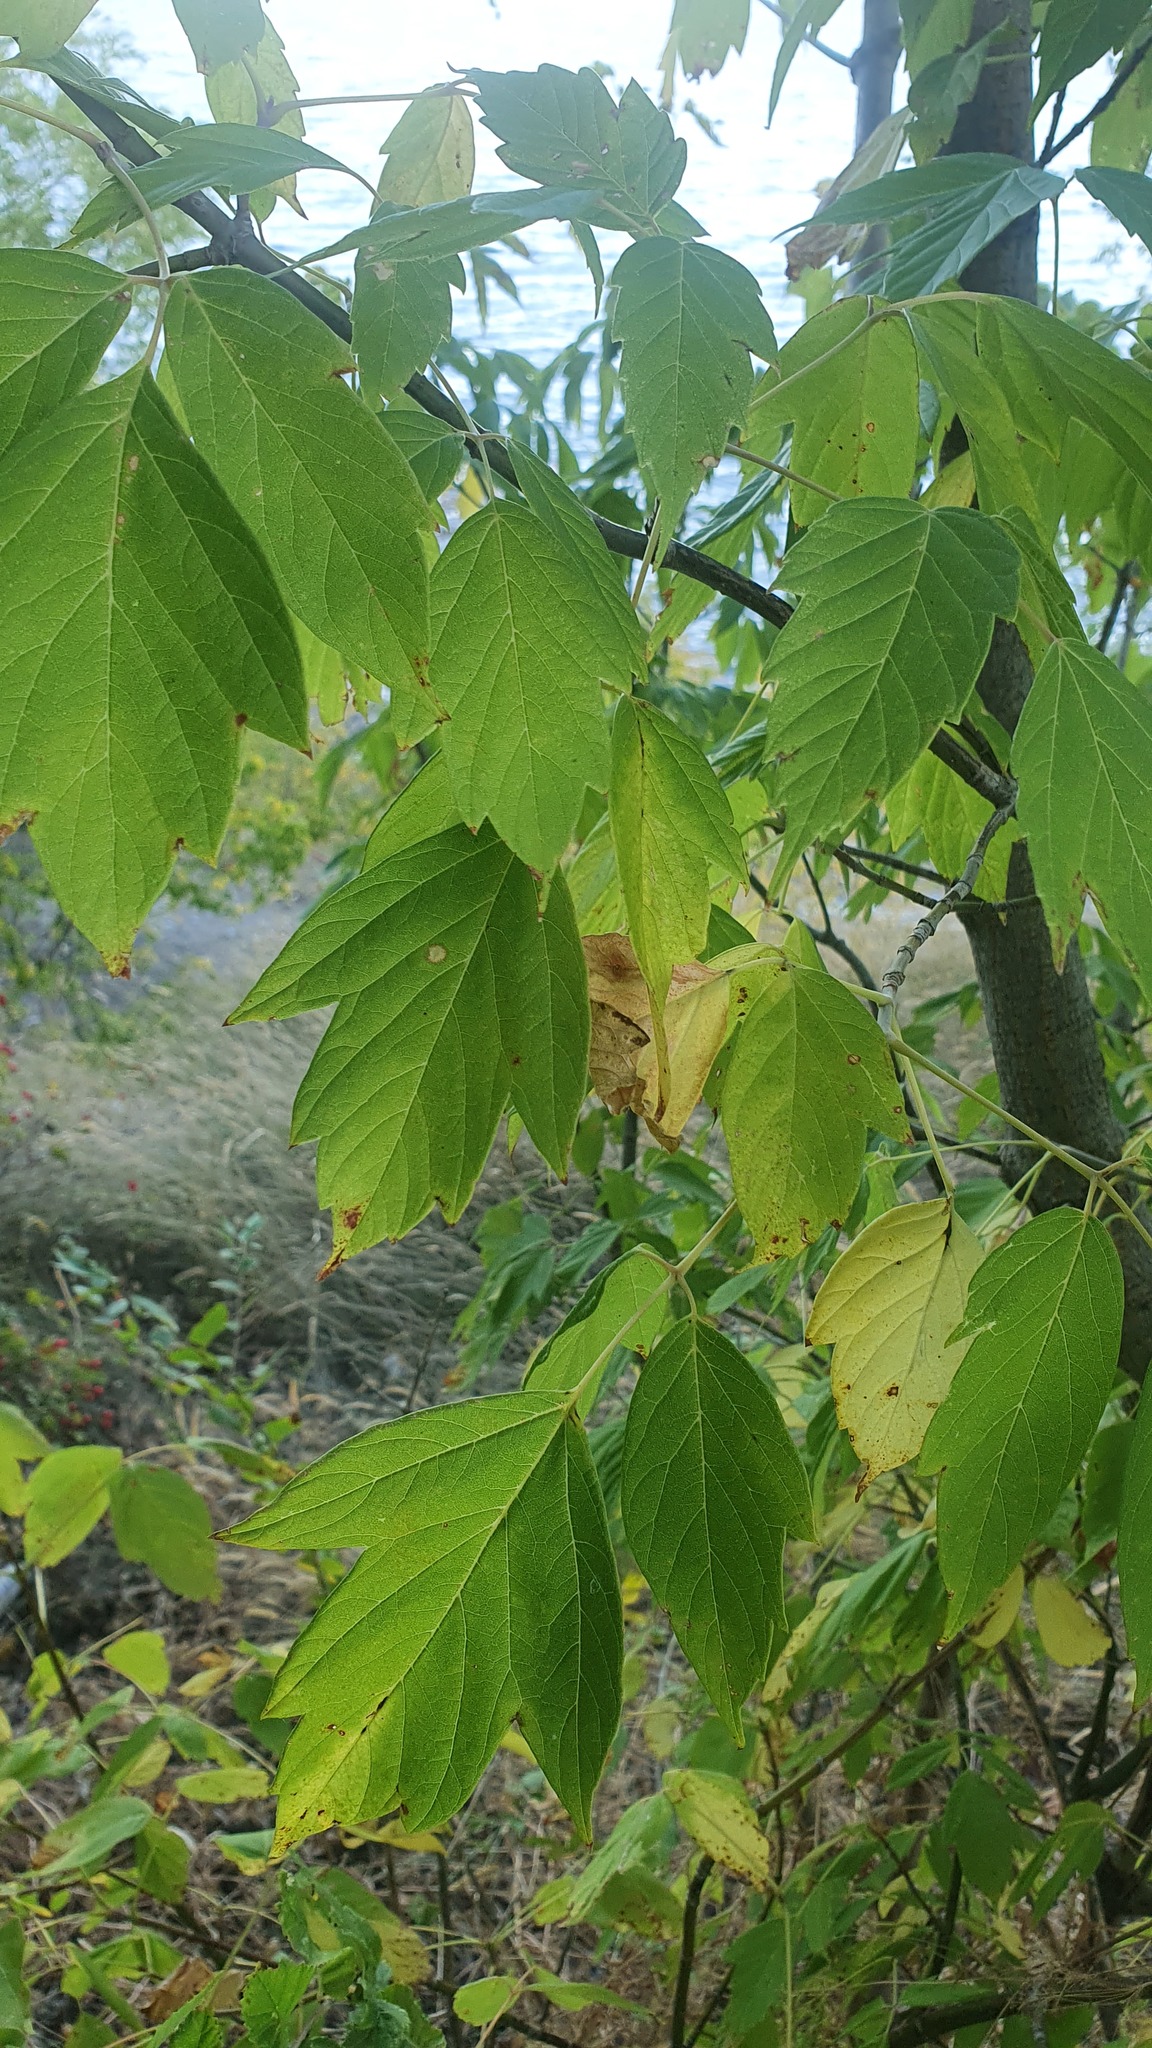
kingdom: Plantae
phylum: Tracheophyta
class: Magnoliopsida
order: Sapindales
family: Sapindaceae
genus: Acer
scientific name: Acer negundo
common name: Ashleaf maple
